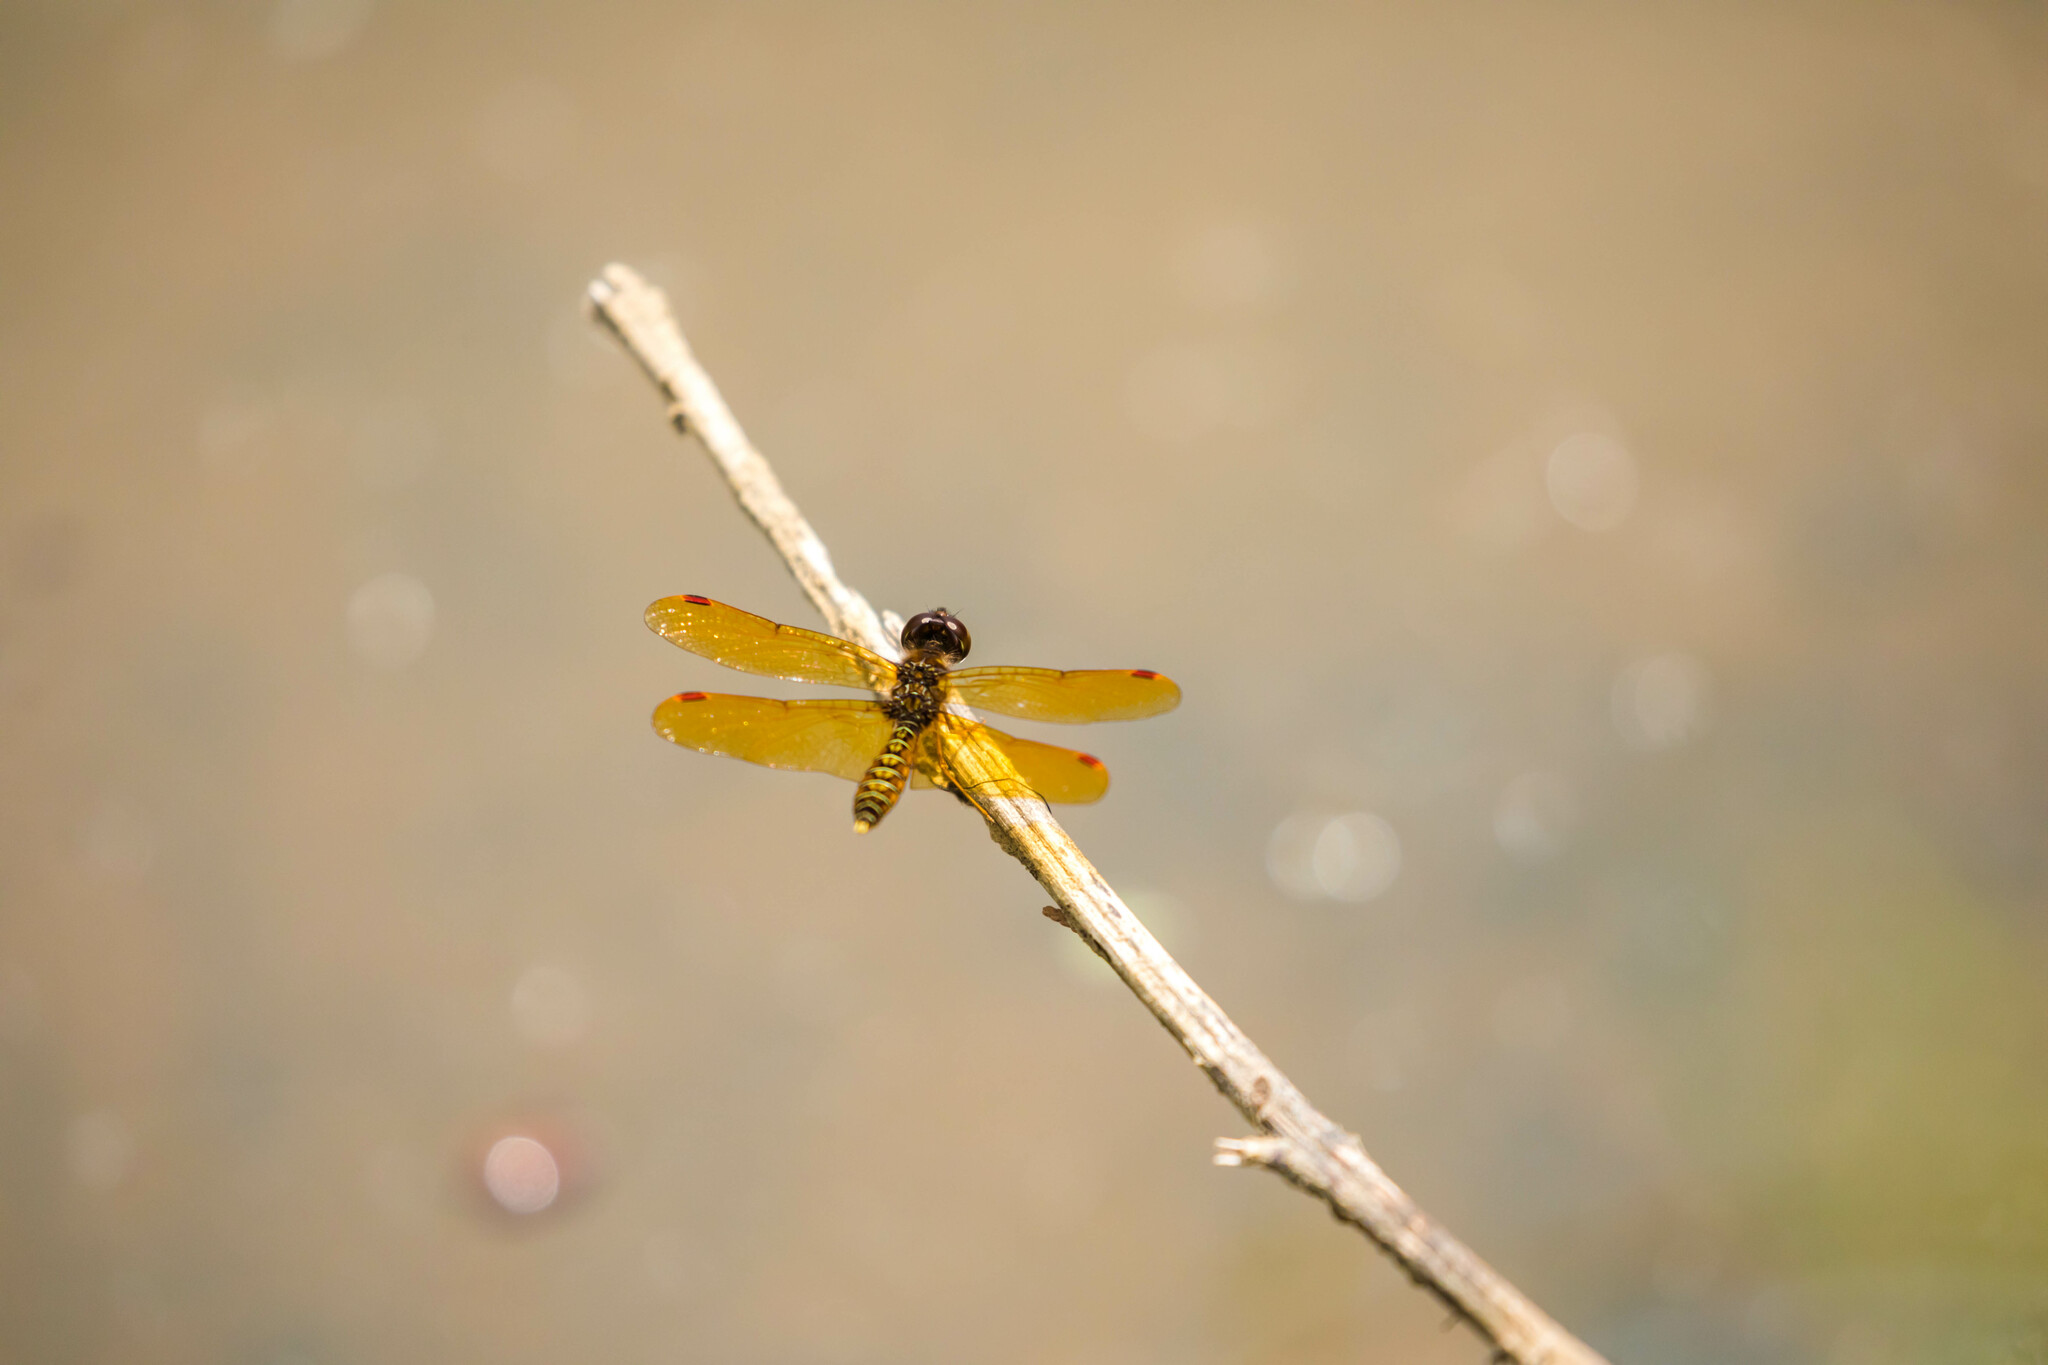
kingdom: Animalia
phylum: Arthropoda
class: Insecta
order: Odonata
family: Libellulidae
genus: Perithemis
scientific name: Perithemis tenera
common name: Eastern amberwing
